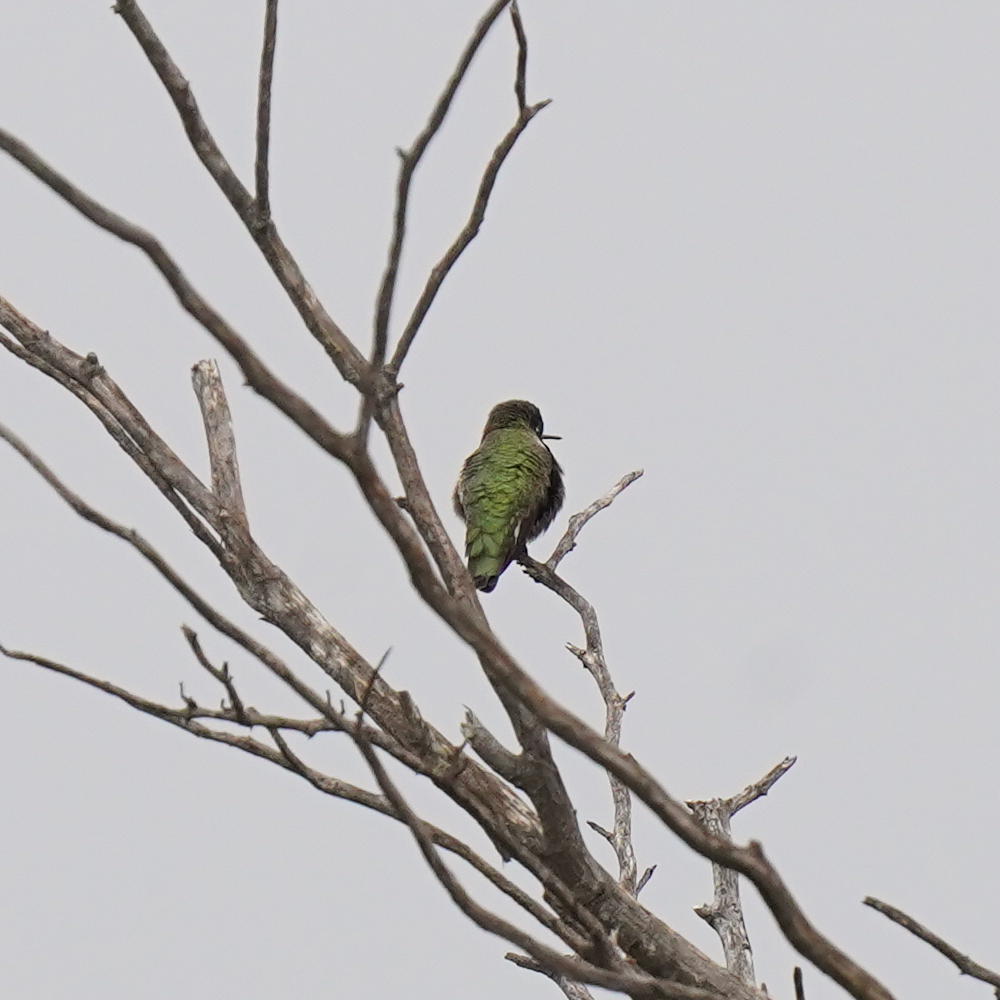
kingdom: Animalia
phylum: Chordata
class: Aves
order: Apodiformes
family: Trochilidae
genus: Calypte
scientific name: Calypte anna
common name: Anna's hummingbird
